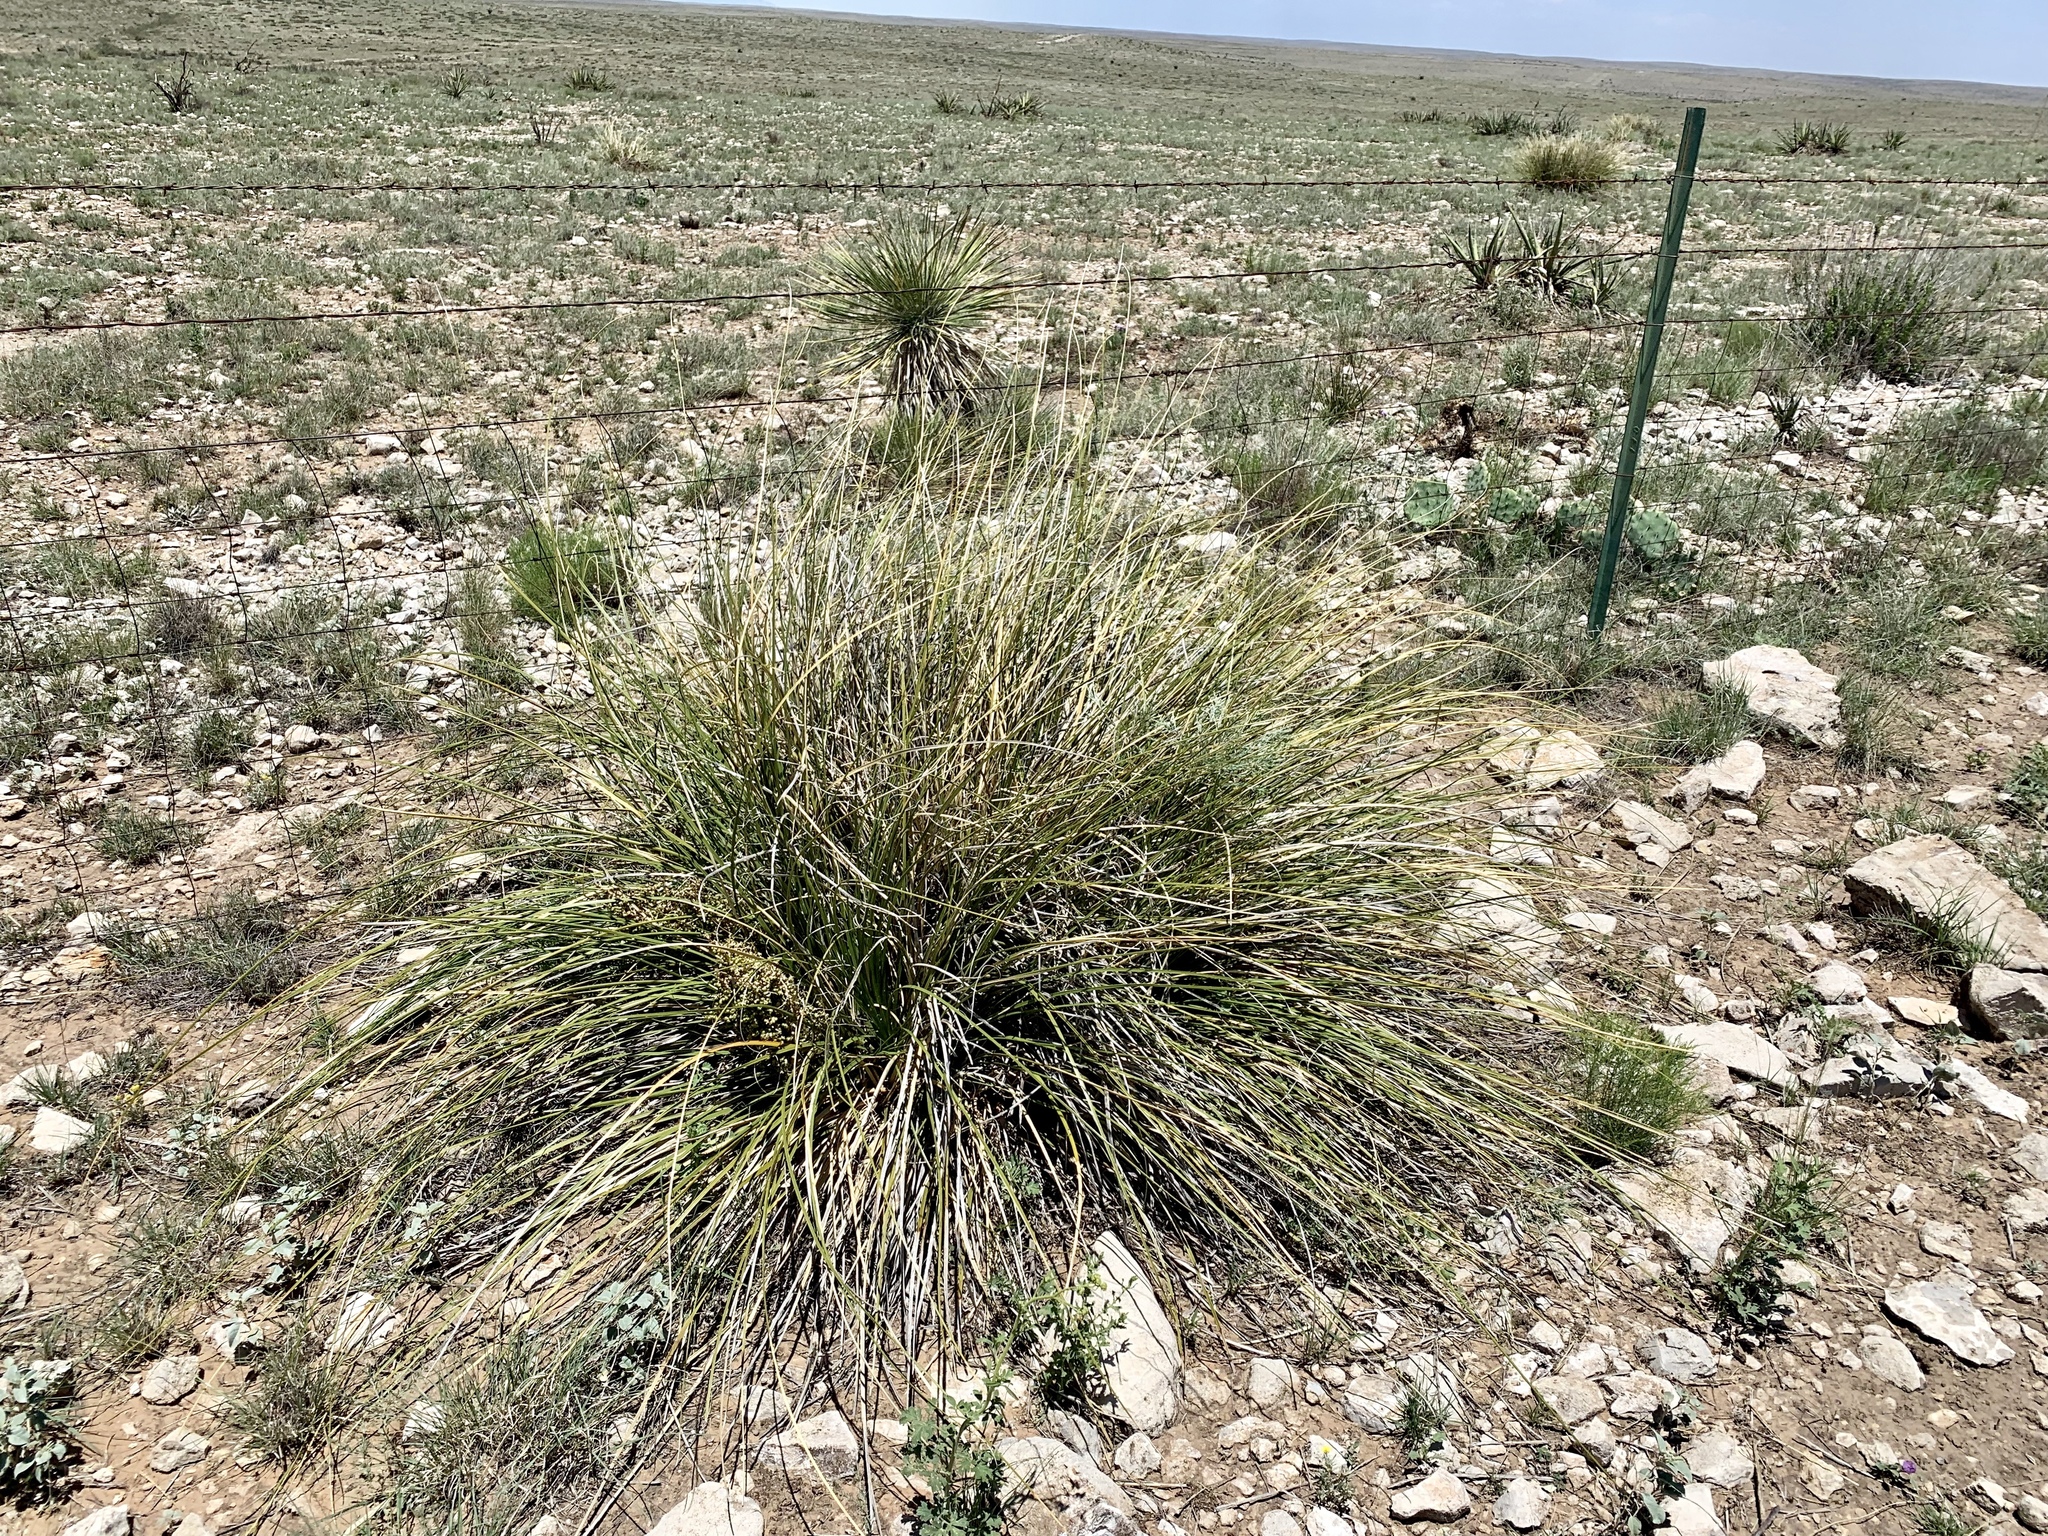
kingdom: Plantae
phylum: Tracheophyta
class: Liliopsida
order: Asparagales
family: Asparagaceae
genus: Nolina
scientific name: Nolina texana
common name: Texas sacahuiste
